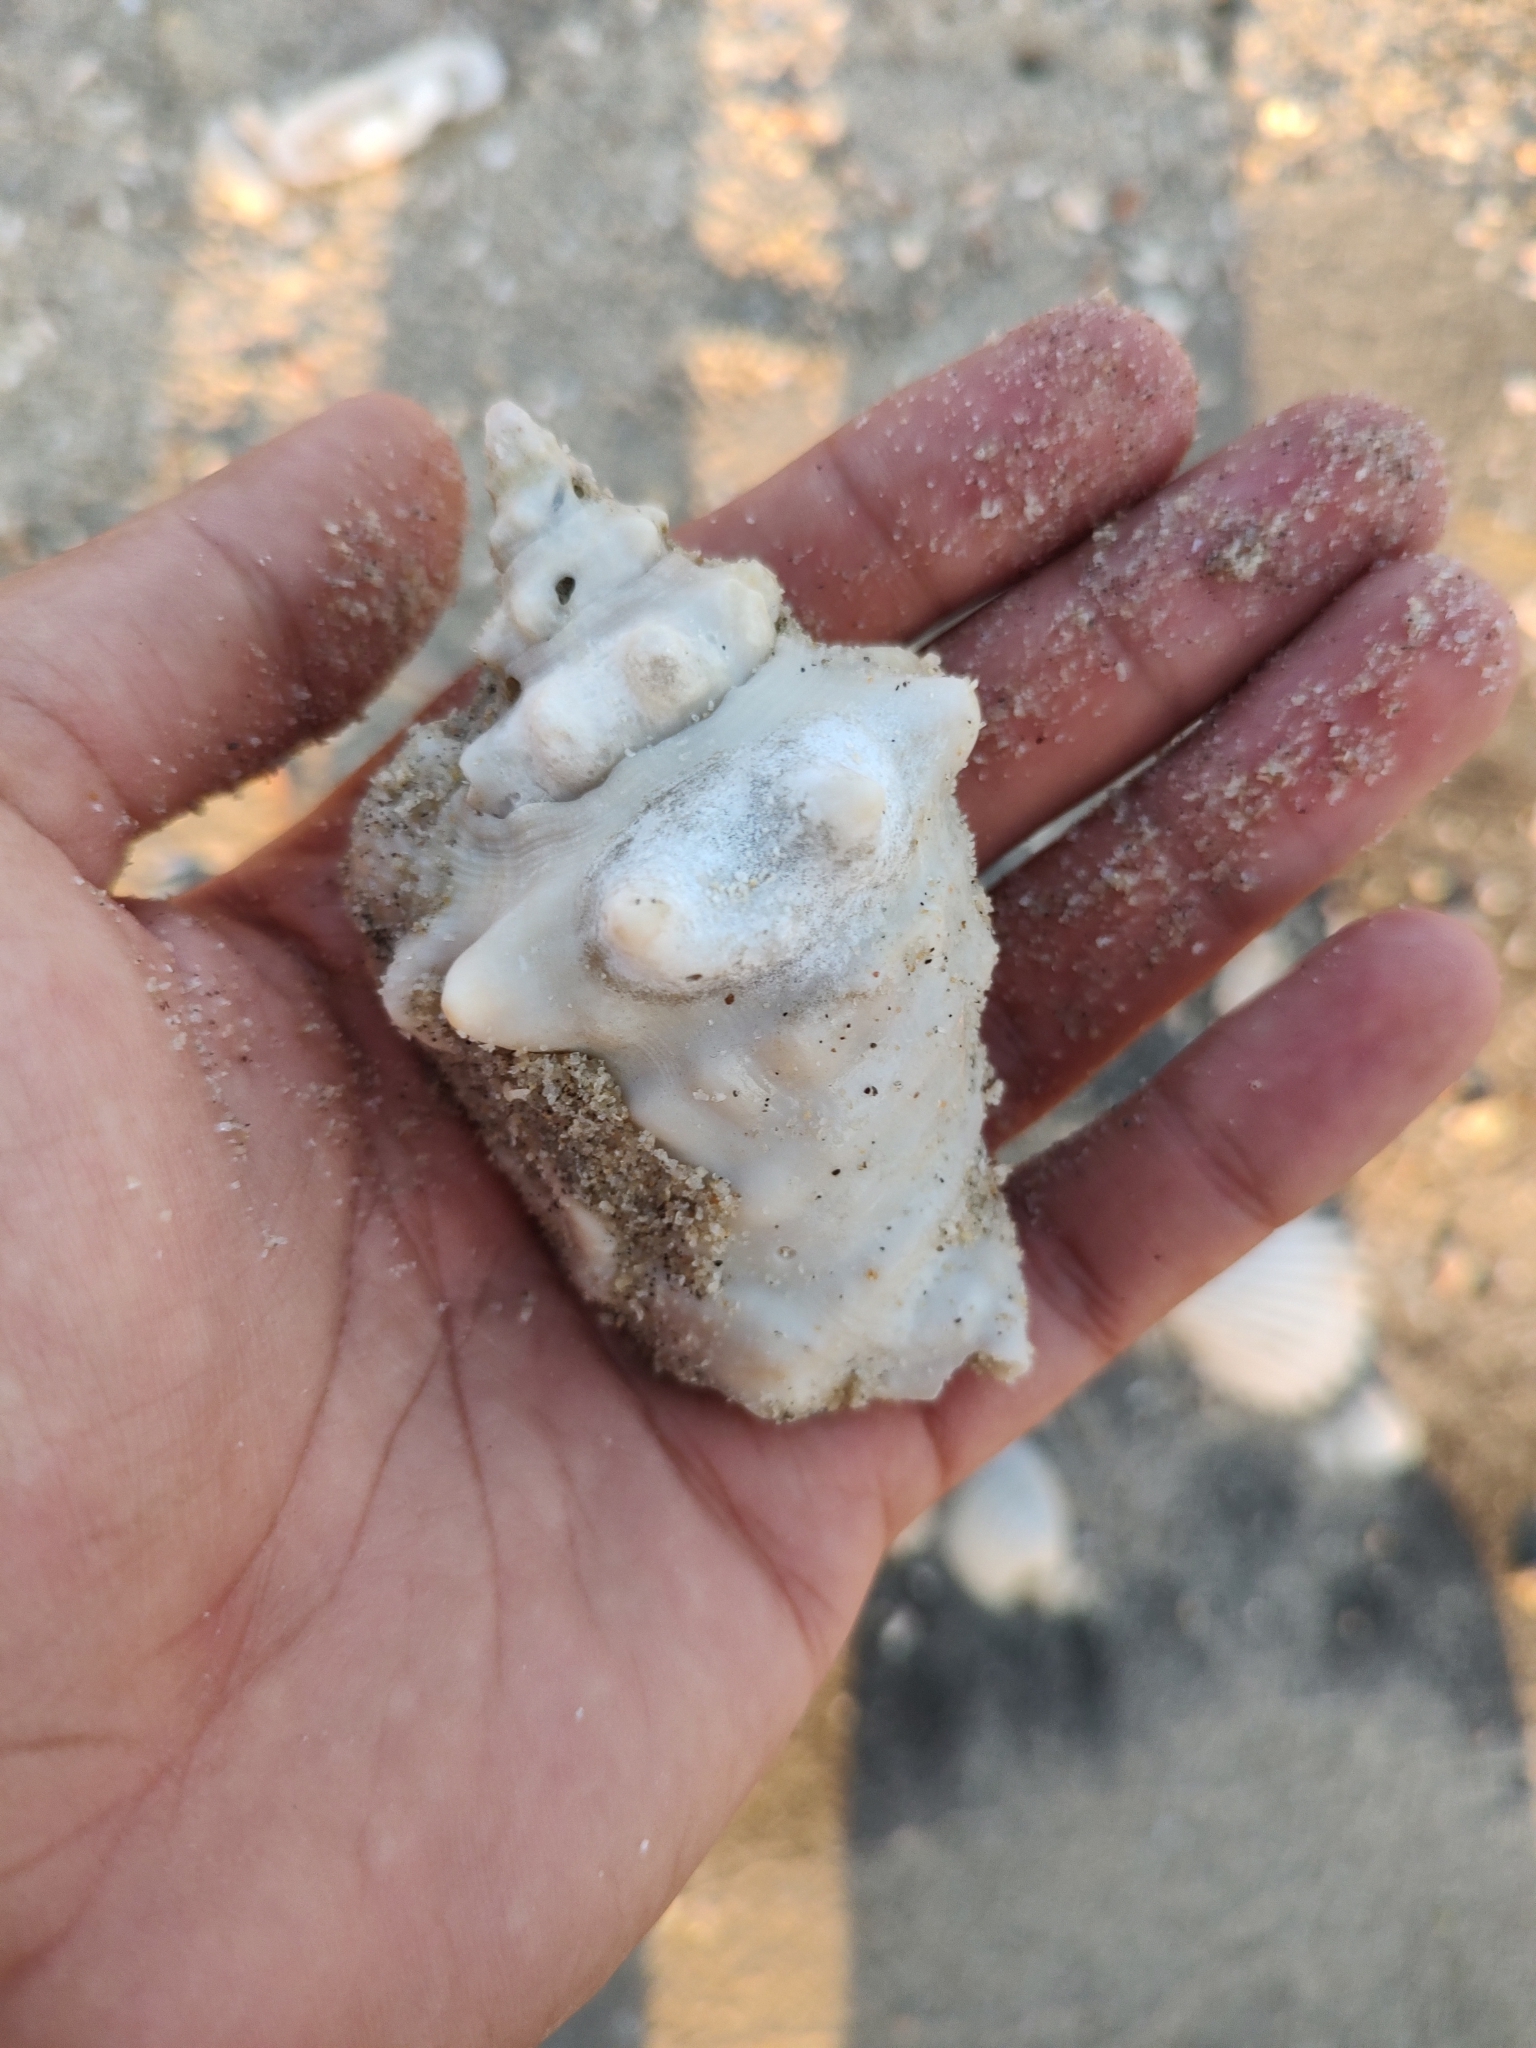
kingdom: Animalia
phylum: Mollusca
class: Gastropoda
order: Littorinimorpha
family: Strombidae
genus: Persististrombus
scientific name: Persististrombus granulatus
